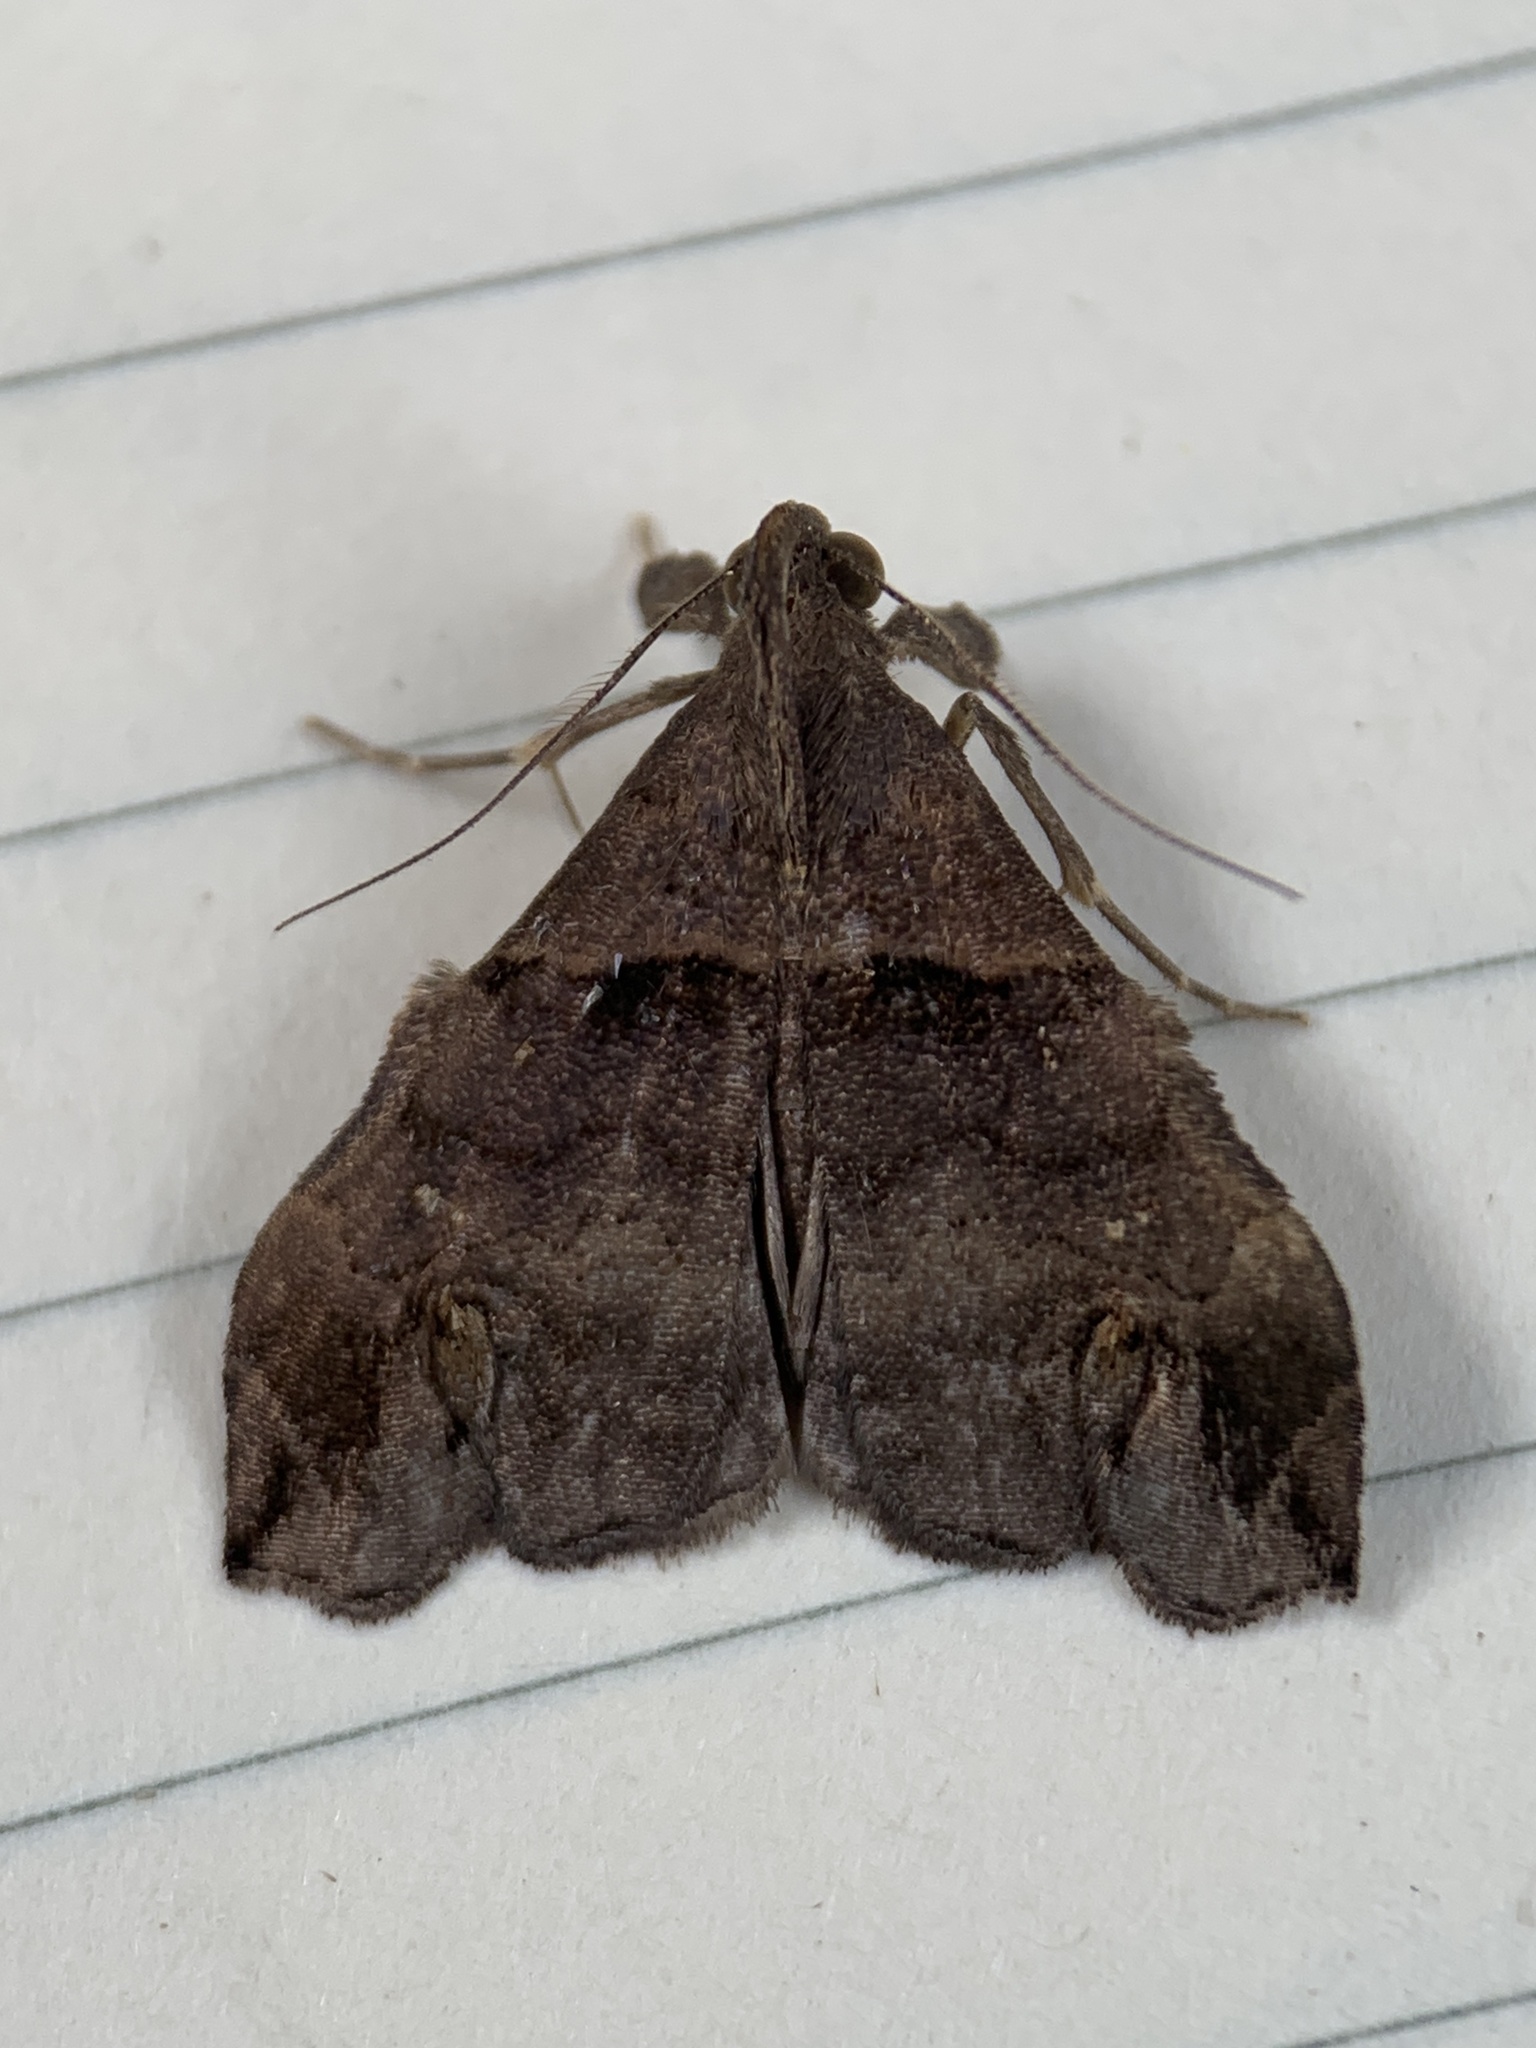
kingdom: Animalia
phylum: Arthropoda
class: Insecta
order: Lepidoptera
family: Erebidae
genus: Lascoria
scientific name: Lascoria alucitalis
